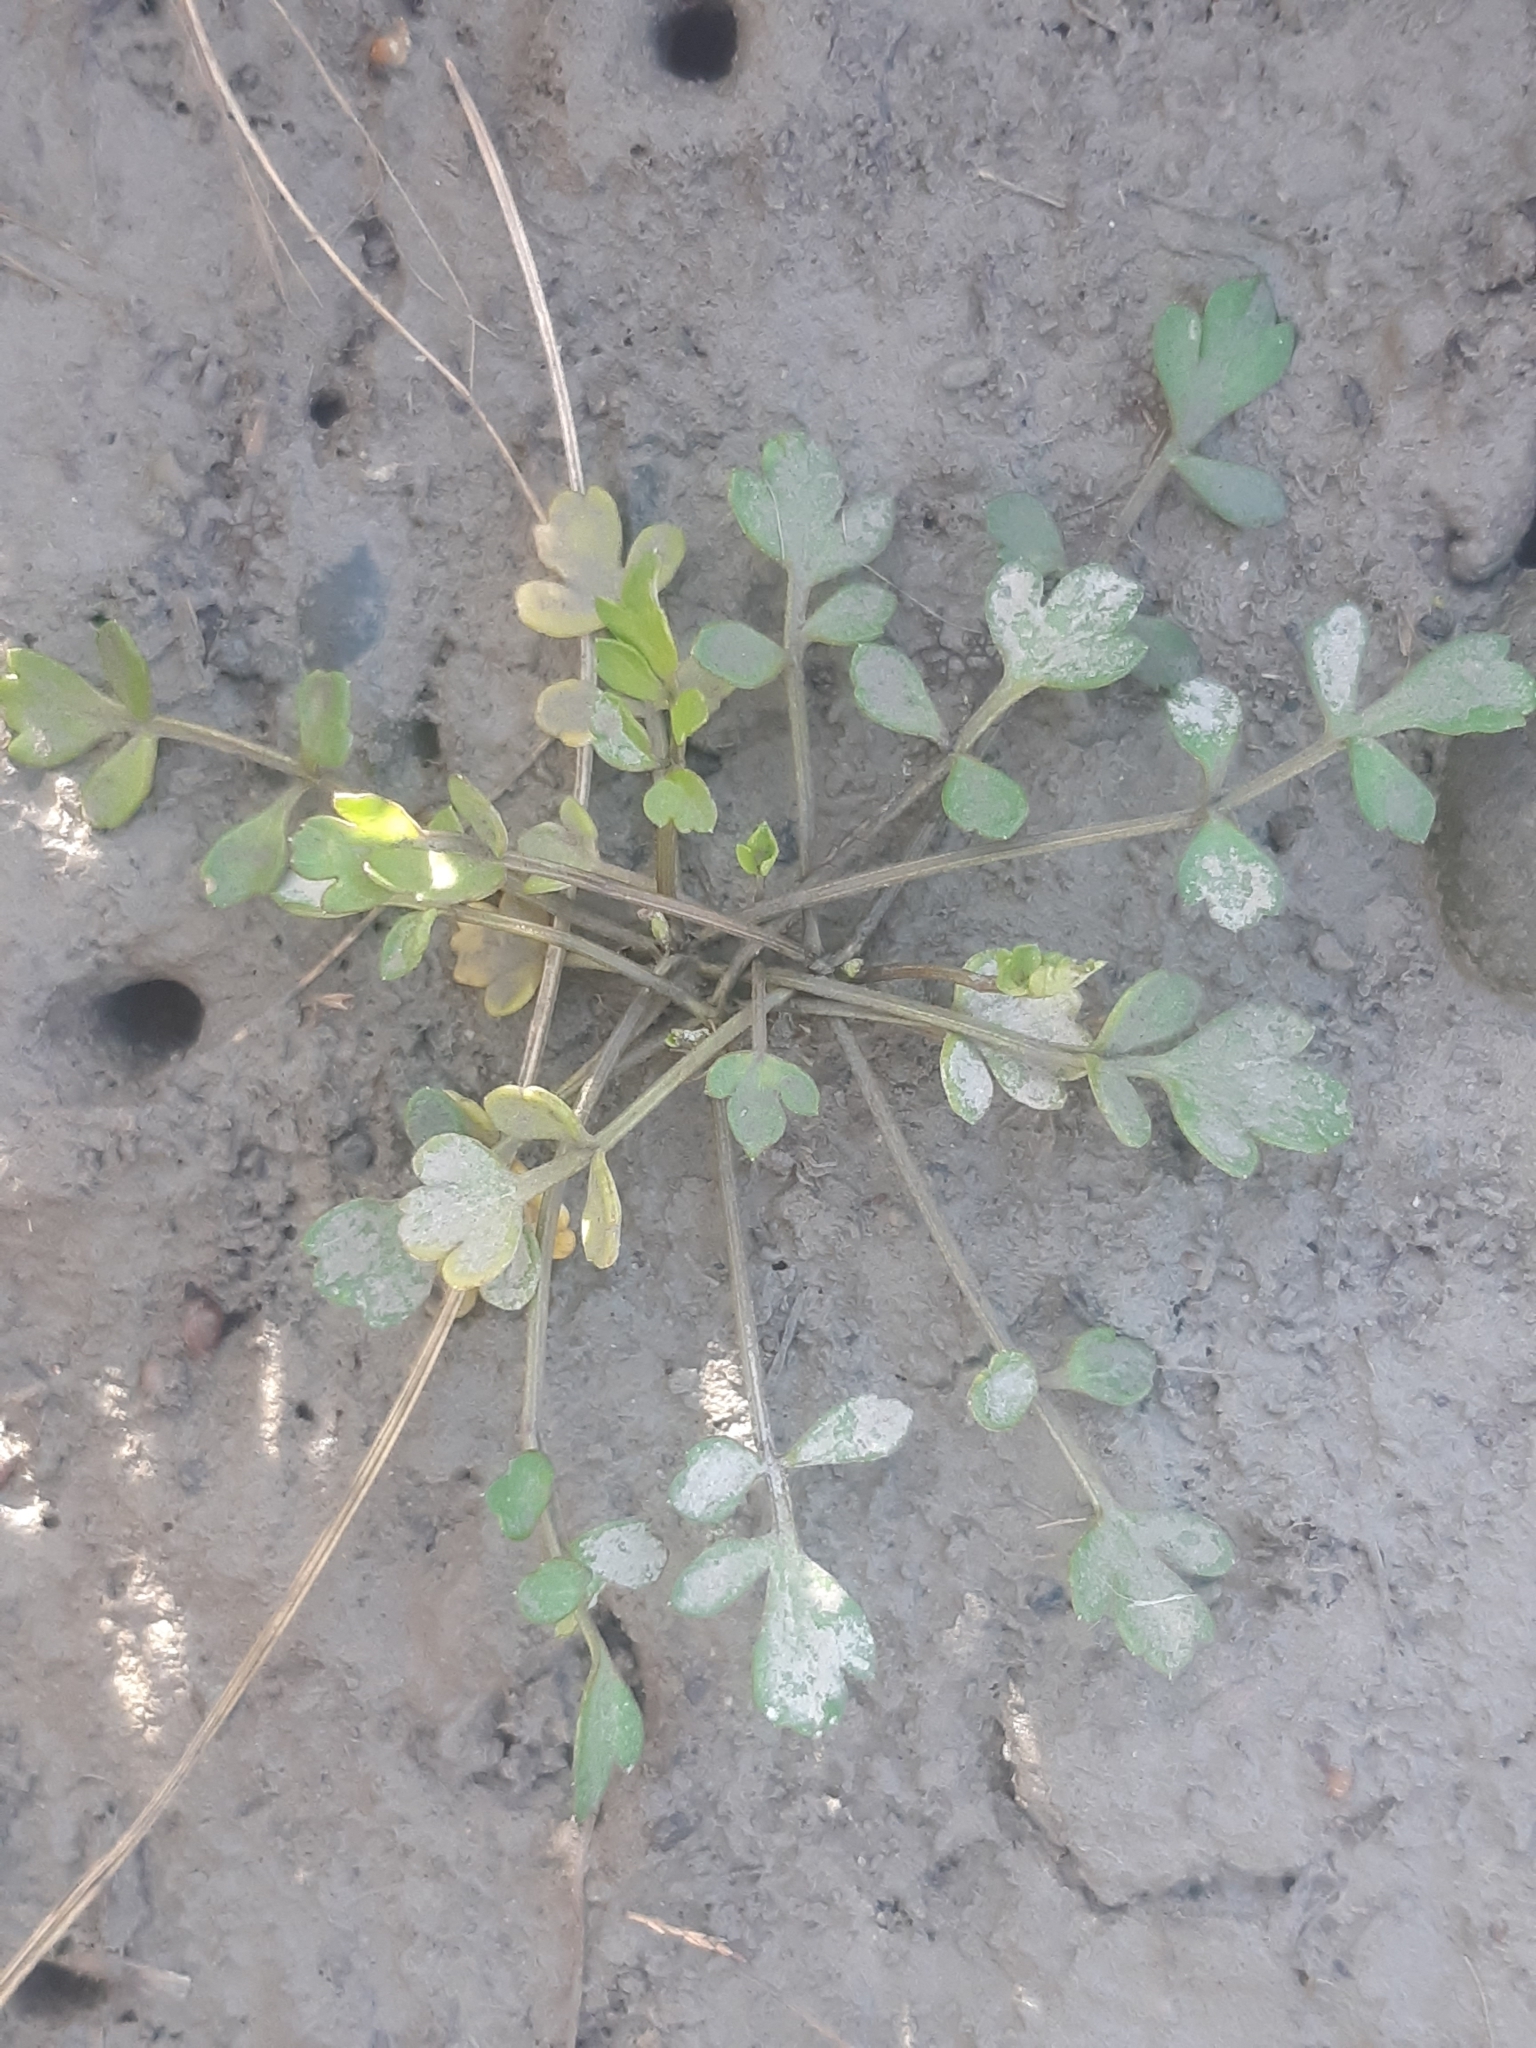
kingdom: Plantae
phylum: Tracheophyta
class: Magnoliopsida
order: Apiales
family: Apiaceae
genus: Apium
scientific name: Apium prostratum
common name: Prostrate marshwort
